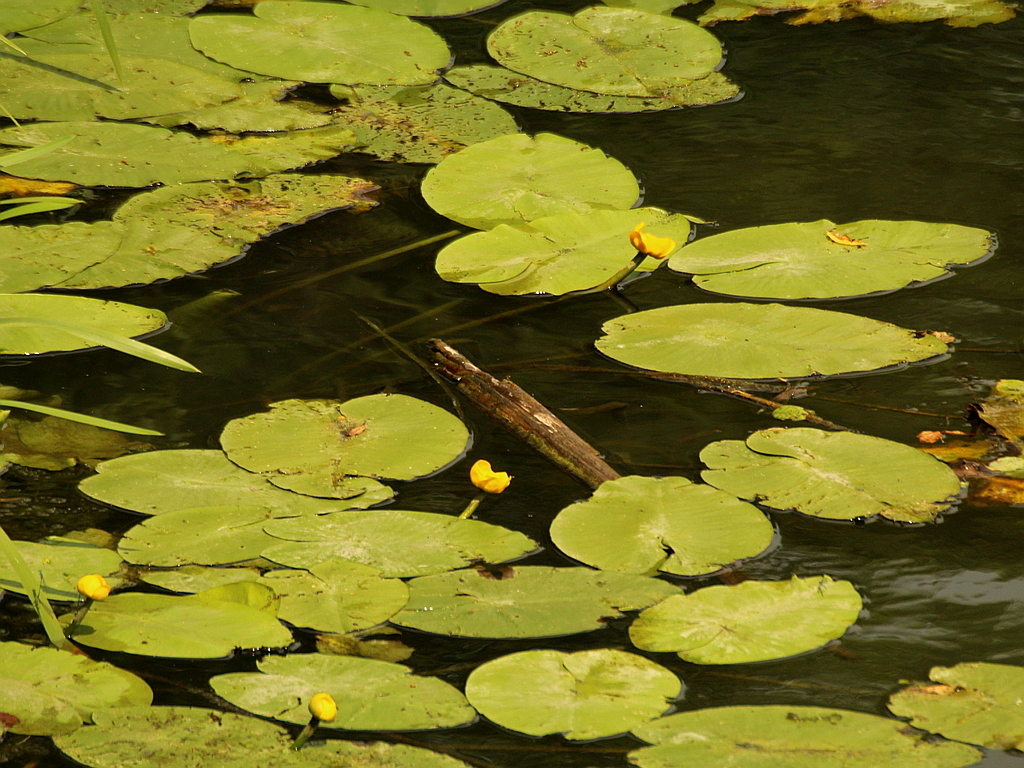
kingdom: Plantae
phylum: Tracheophyta
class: Magnoliopsida
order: Nymphaeales
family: Nymphaeaceae
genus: Nuphar
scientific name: Nuphar lutea
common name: Yellow water-lily
